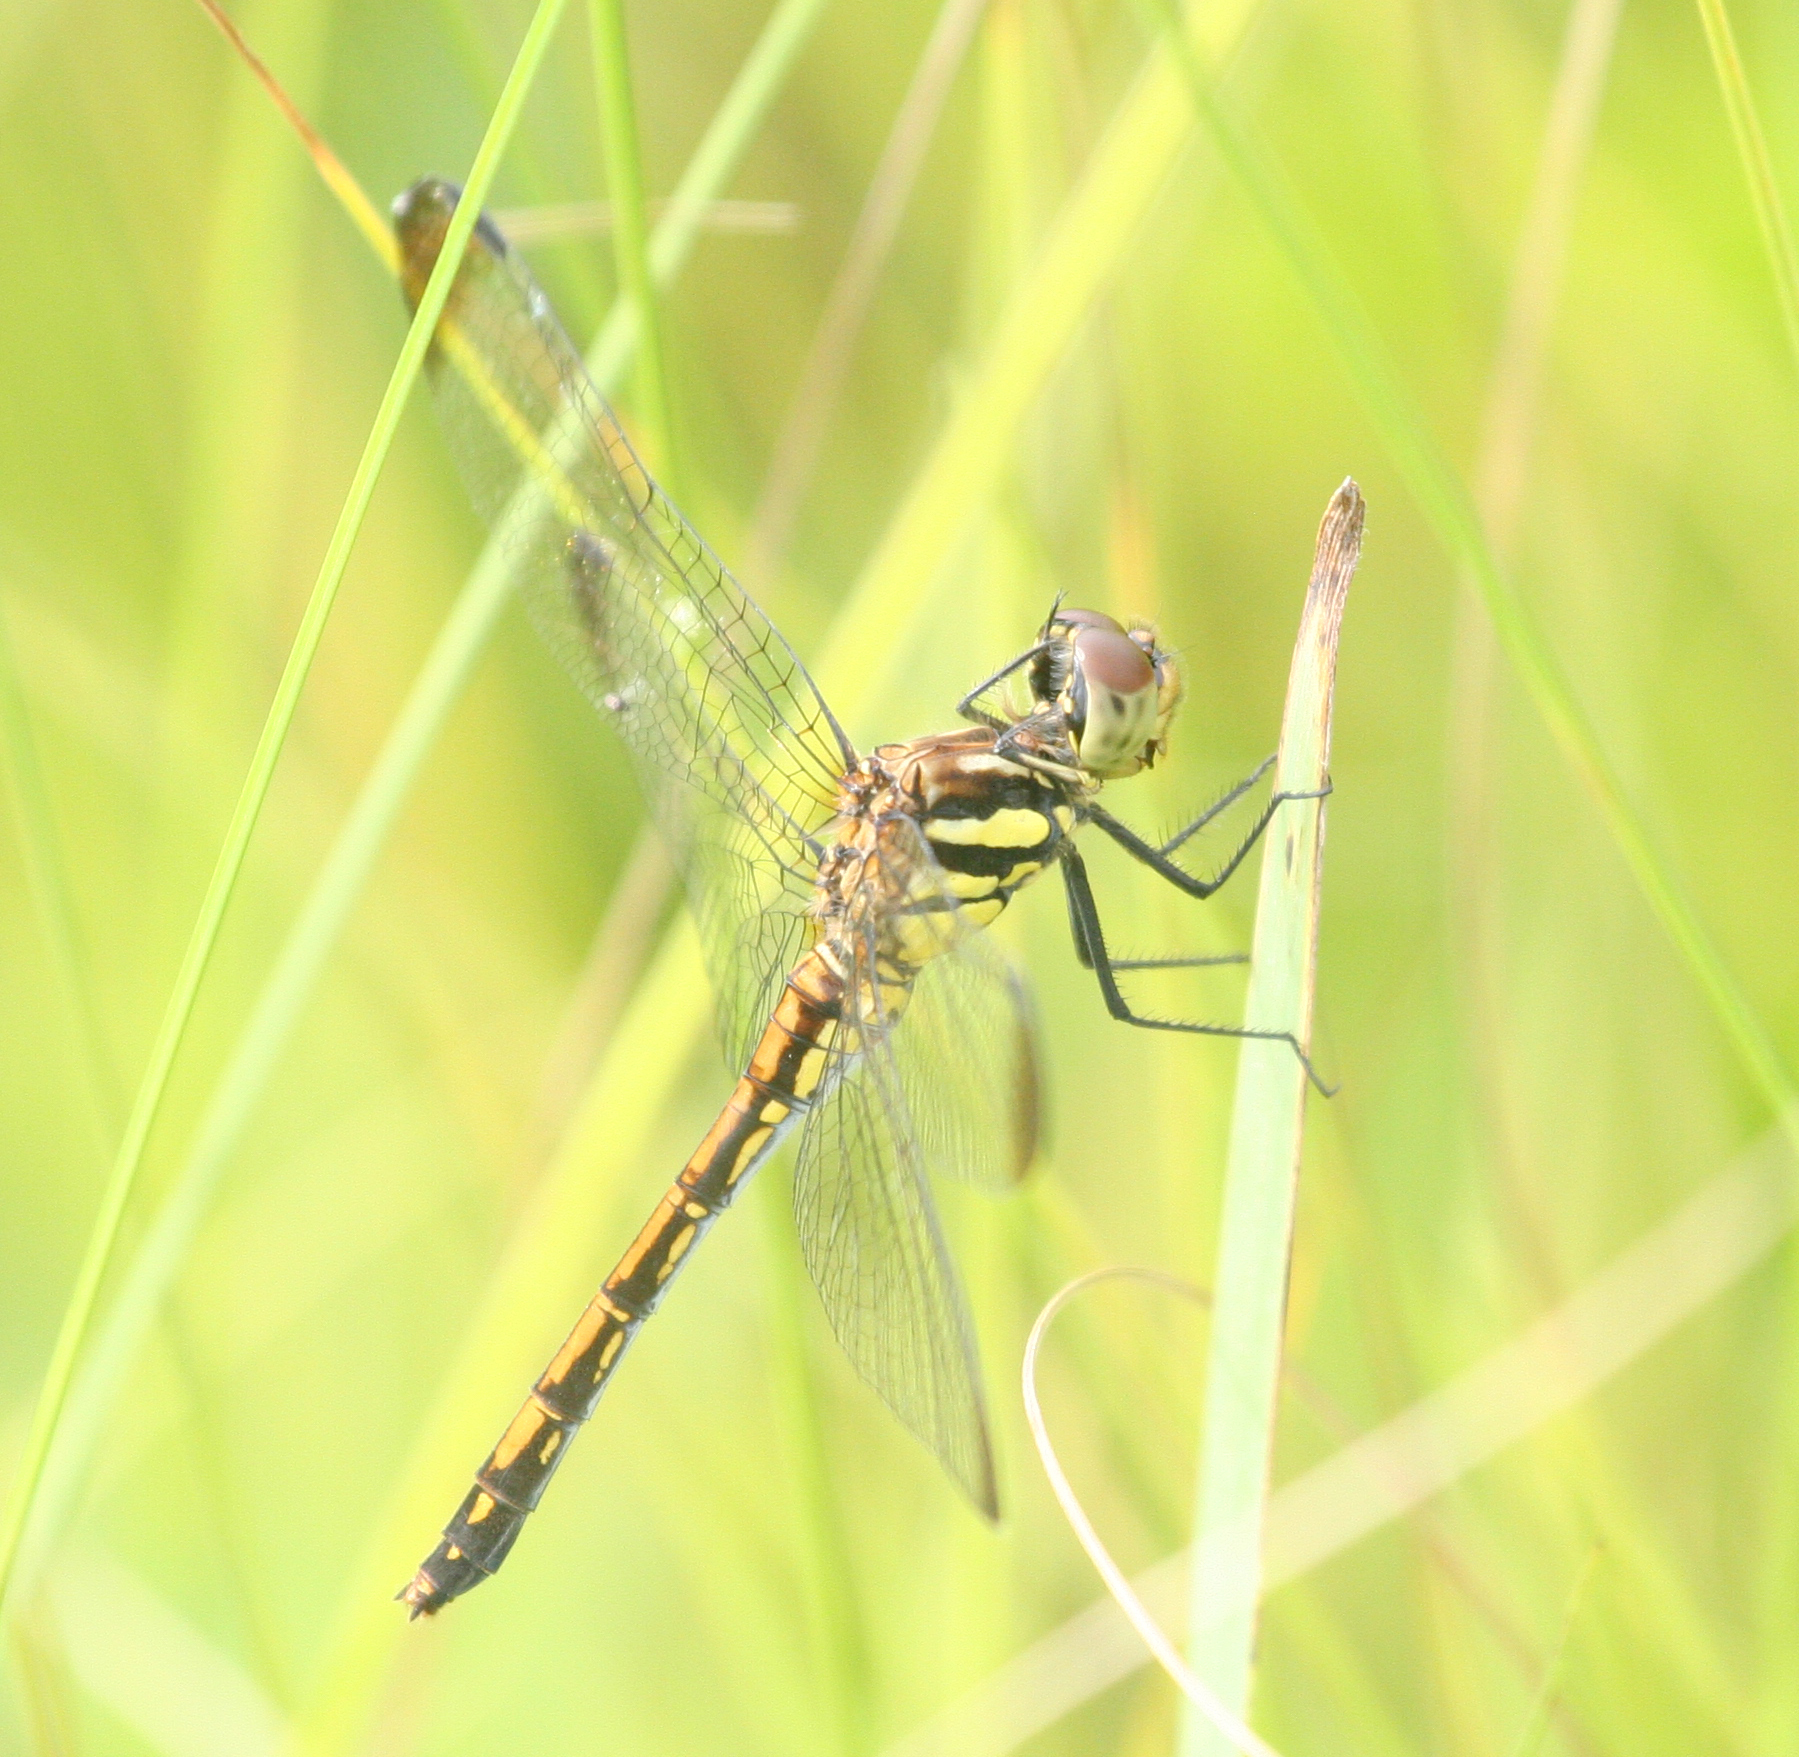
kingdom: Animalia
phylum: Arthropoda
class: Insecta
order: Odonata
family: Libellulidae
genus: Sympetrum
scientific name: Sympetrum infuscatum
